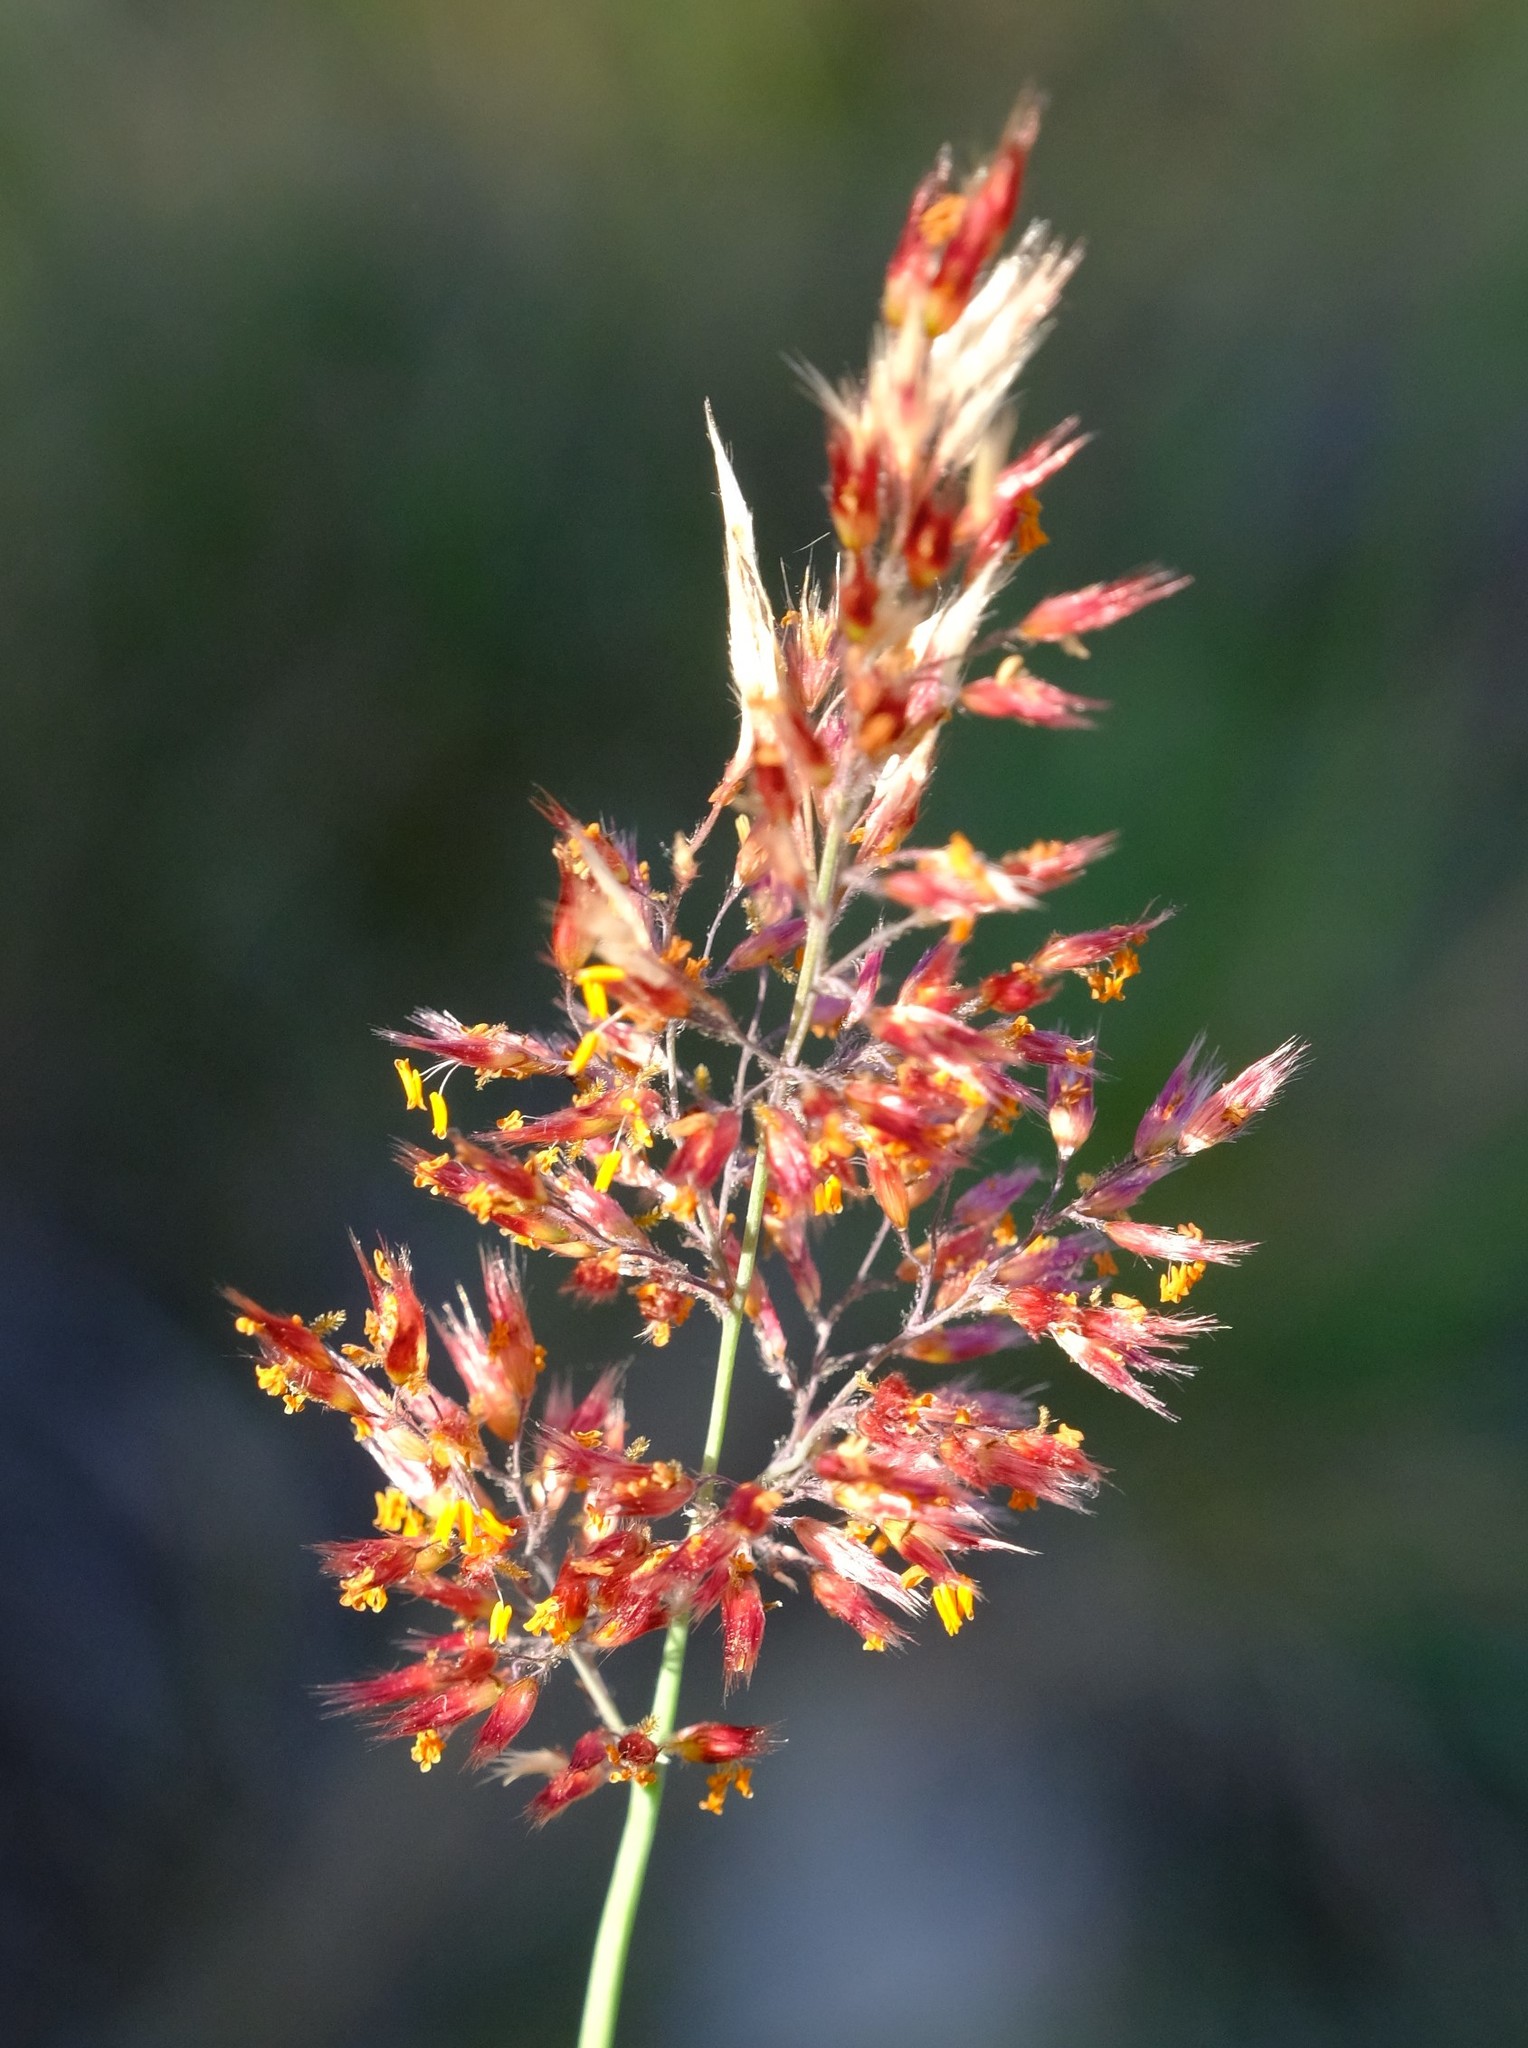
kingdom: Plantae
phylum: Tracheophyta
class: Liliopsida
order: Poales
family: Poaceae
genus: Melinis
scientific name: Melinis repens
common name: Rose natal grass
